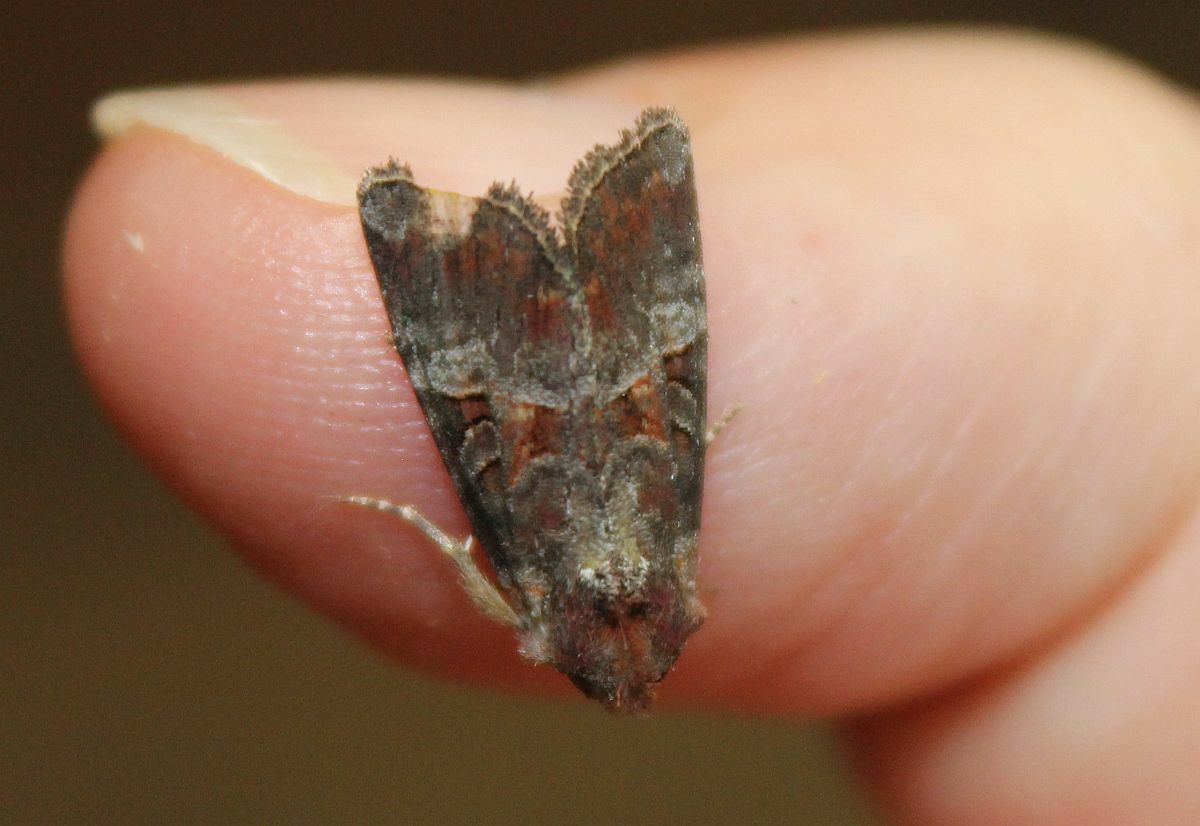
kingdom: Animalia
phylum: Arthropoda
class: Insecta
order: Lepidoptera
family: Noctuidae
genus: Litoligia
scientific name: Litoligia literosa
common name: Rosy minor
